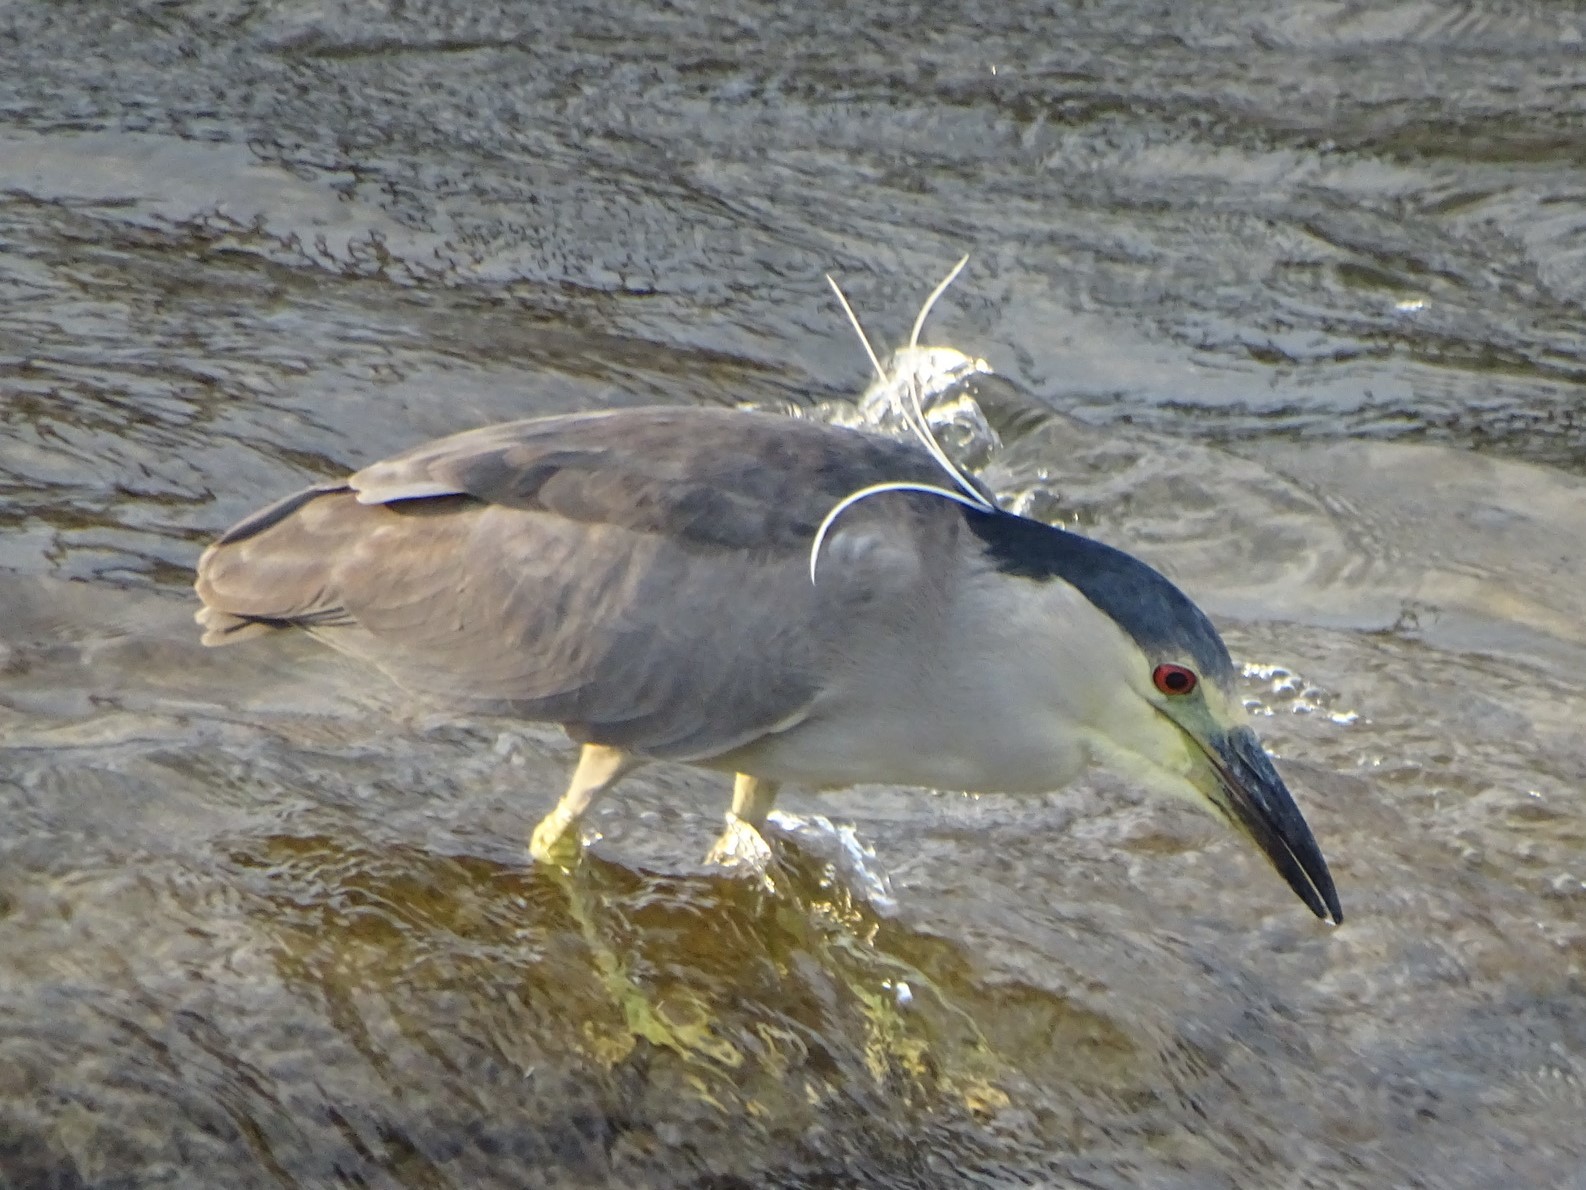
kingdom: Animalia
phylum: Chordata
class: Aves
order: Pelecaniformes
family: Ardeidae
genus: Nycticorax
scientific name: Nycticorax nycticorax
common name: Black-crowned night heron
